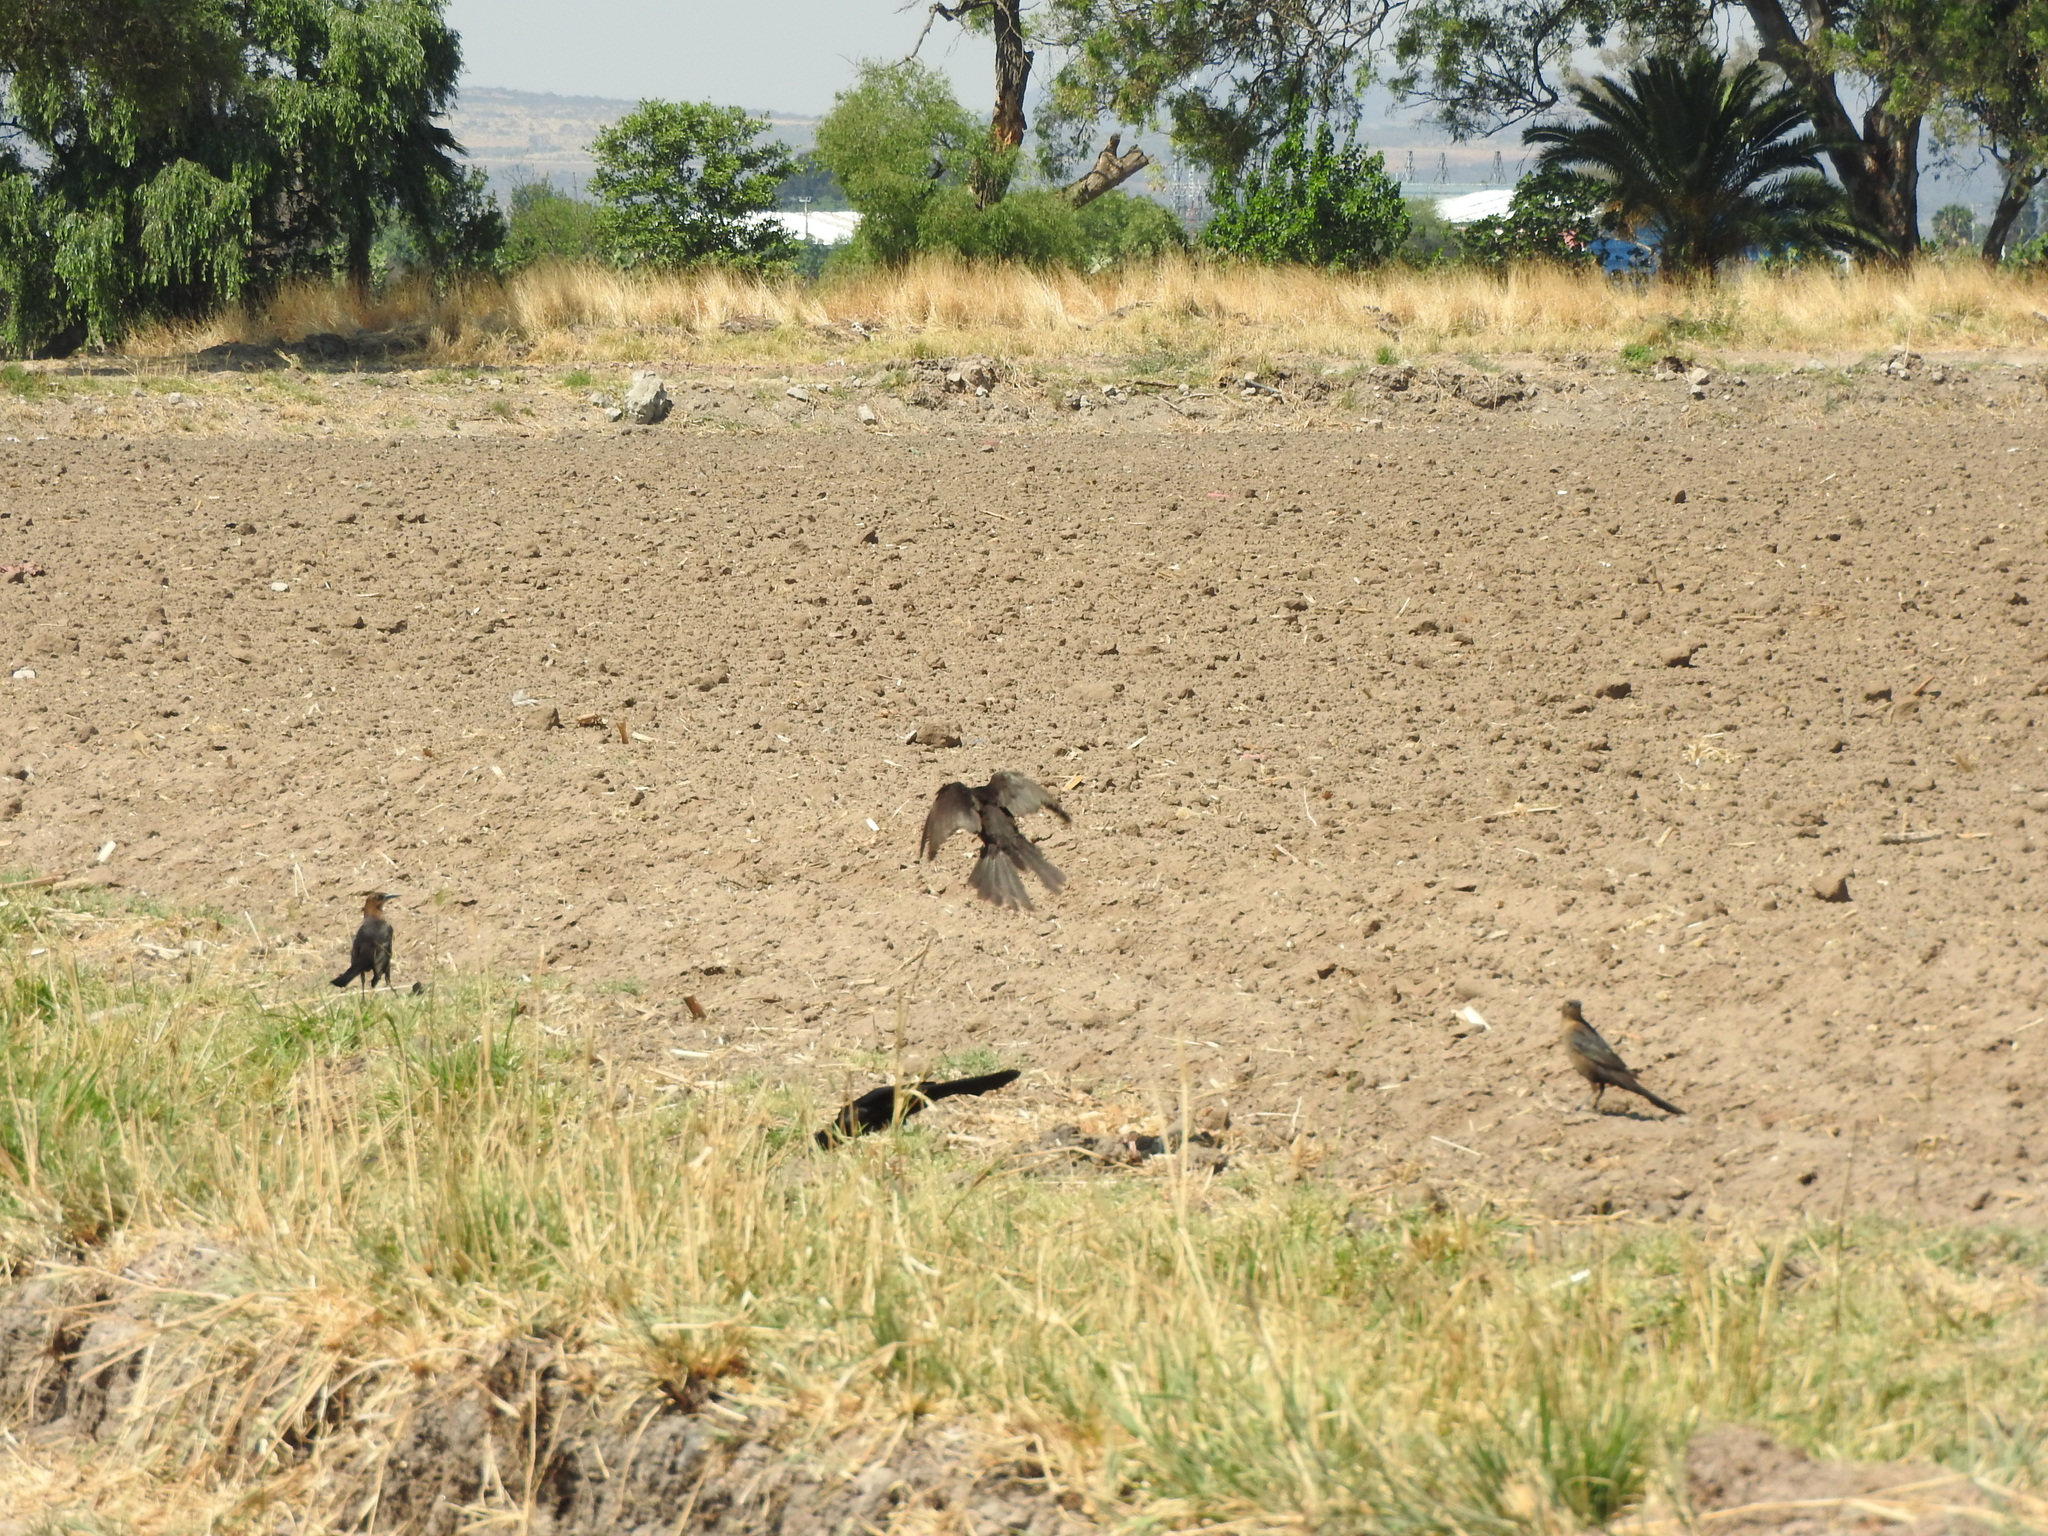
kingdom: Animalia
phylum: Chordata
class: Aves
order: Passeriformes
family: Icteridae
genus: Quiscalus
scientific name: Quiscalus mexicanus
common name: Great-tailed grackle
